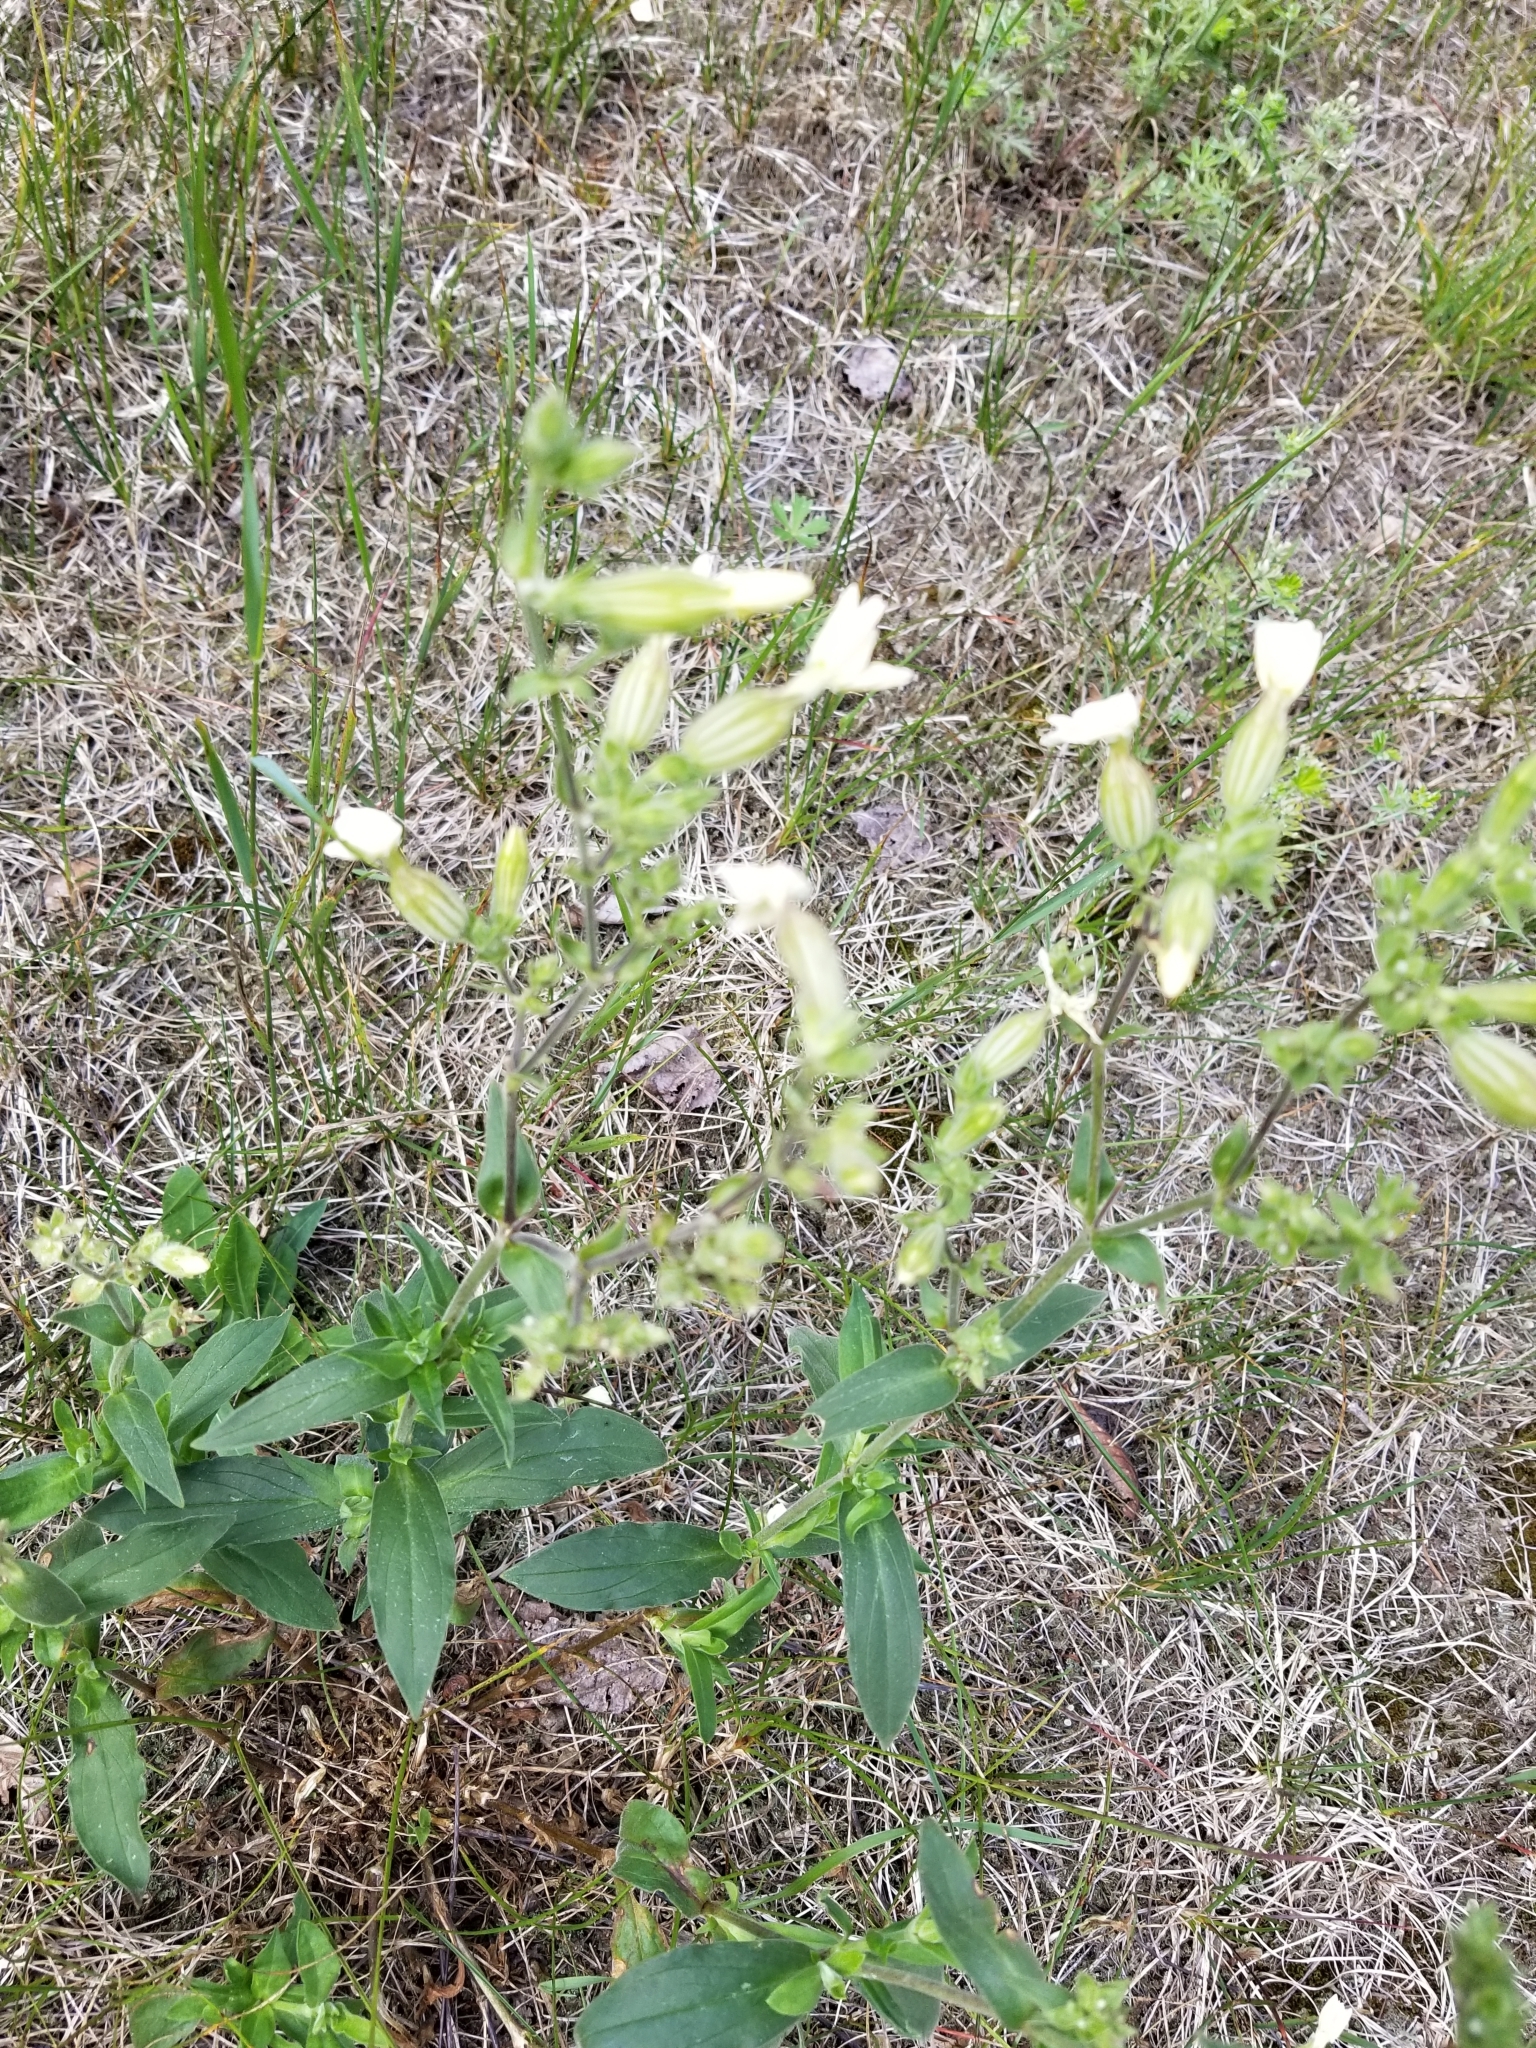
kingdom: Plantae
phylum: Tracheophyta
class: Magnoliopsida
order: Caryophyllales
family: Caryophyllaceae
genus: Saponaria
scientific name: Saponaria officinalis
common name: Soapwort
